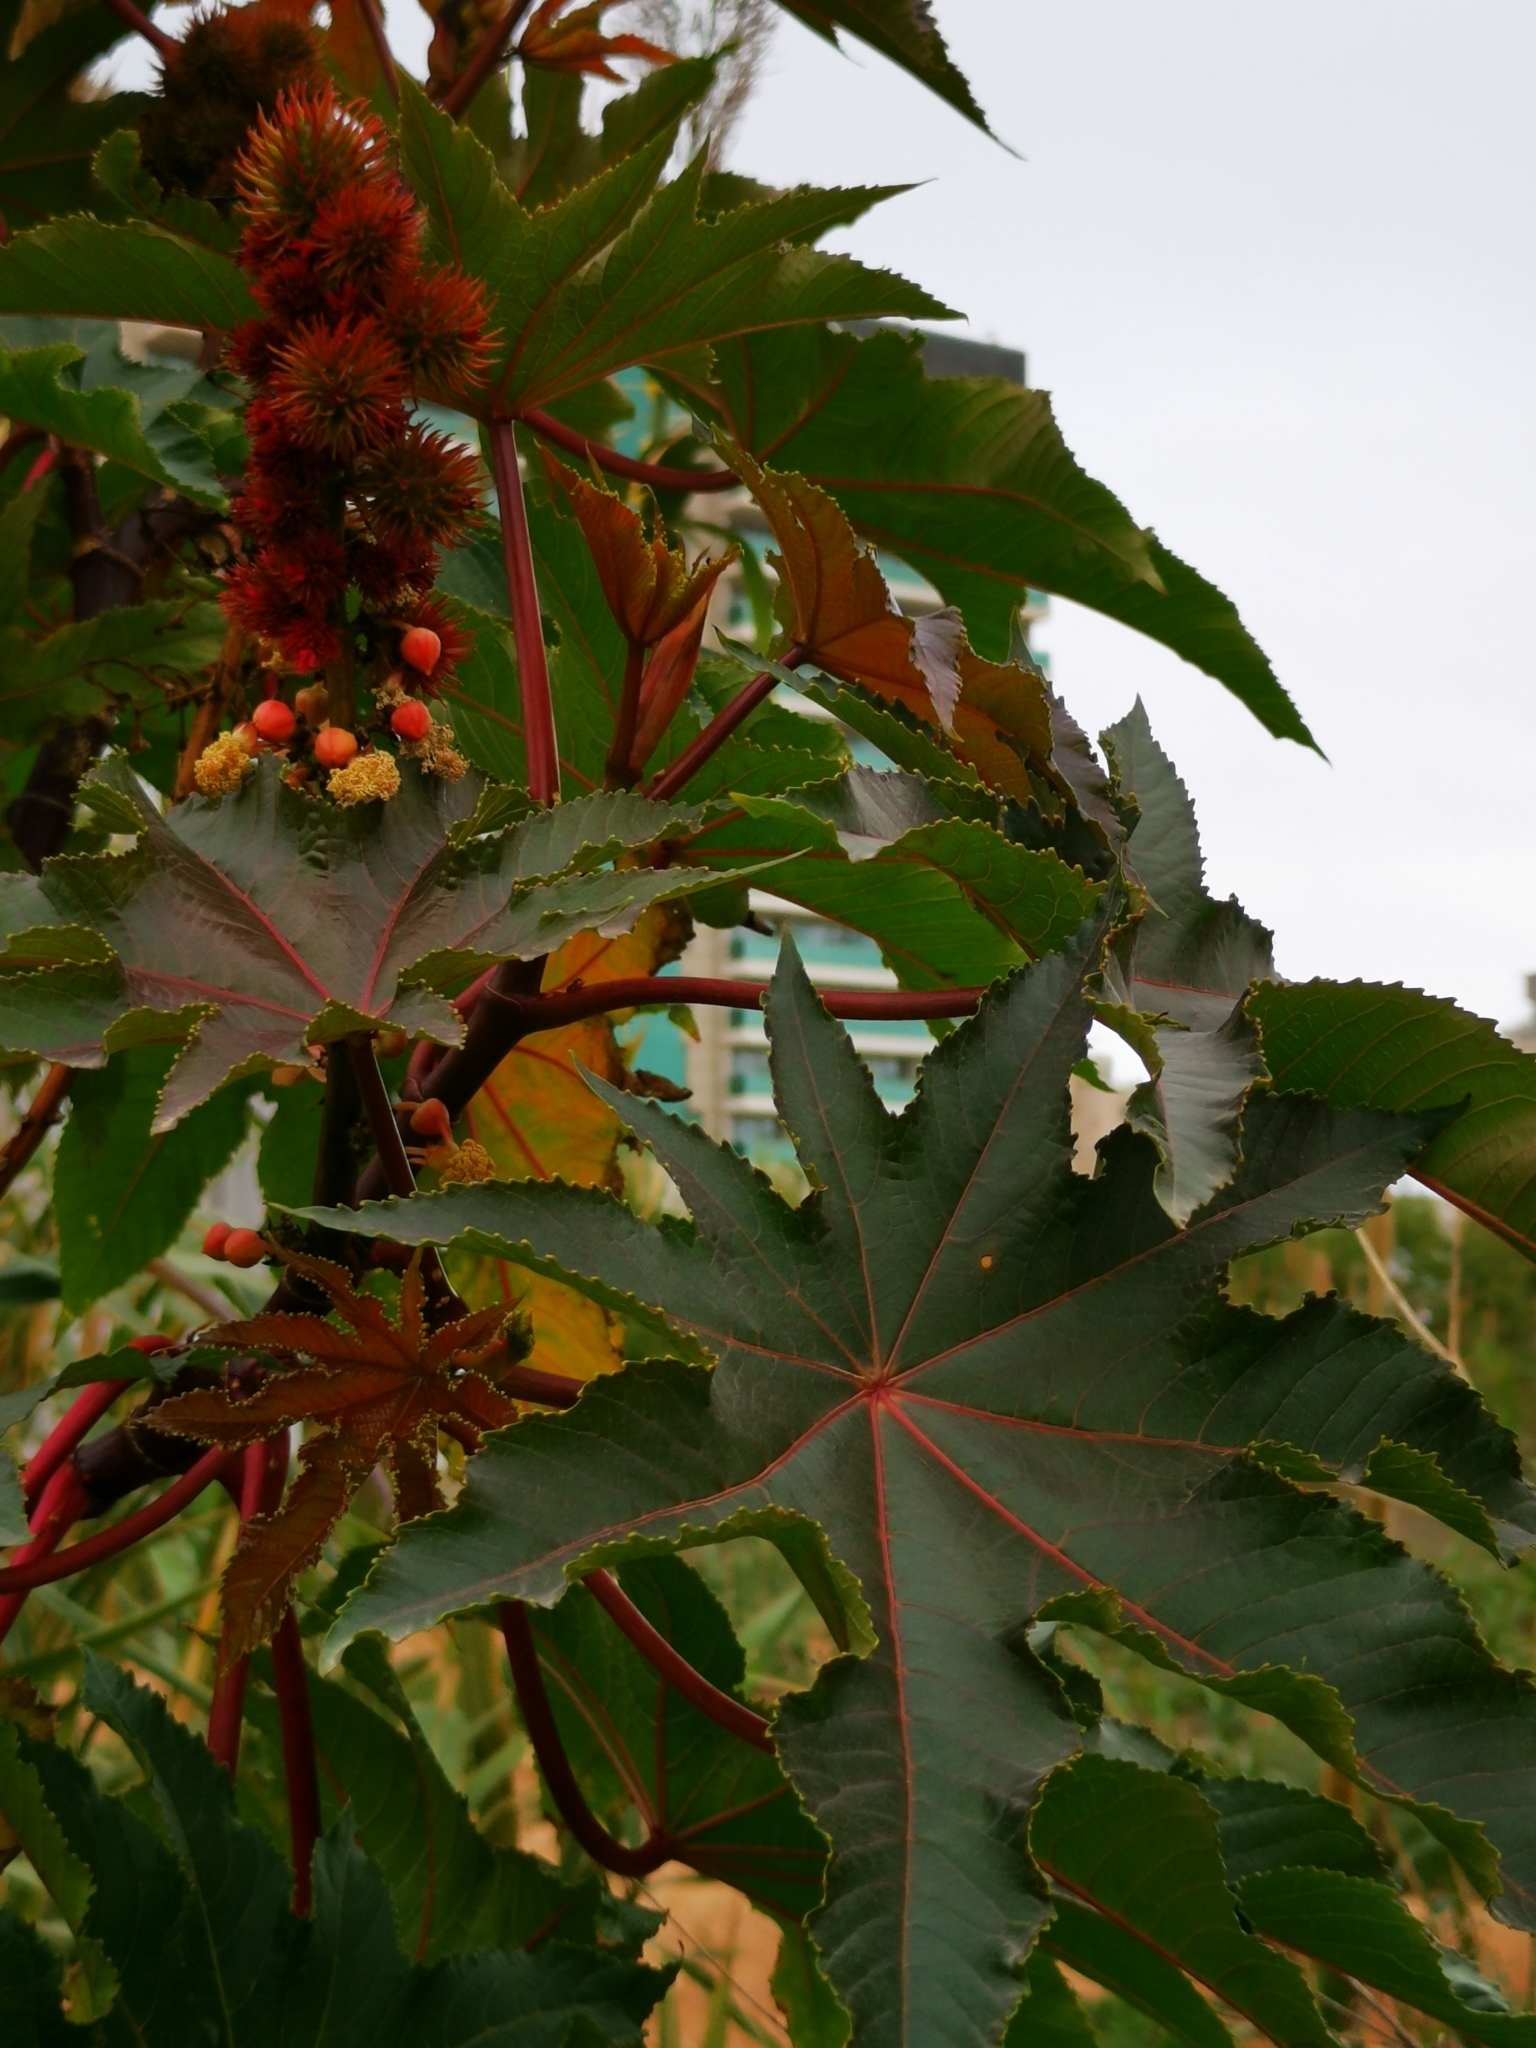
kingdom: Plantae
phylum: Tracheophyta
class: Magnoliopsida
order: Malpighiales
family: Euphorbiaceae
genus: Ricinus
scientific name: Ricinus communis
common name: Castor-oil-plant
